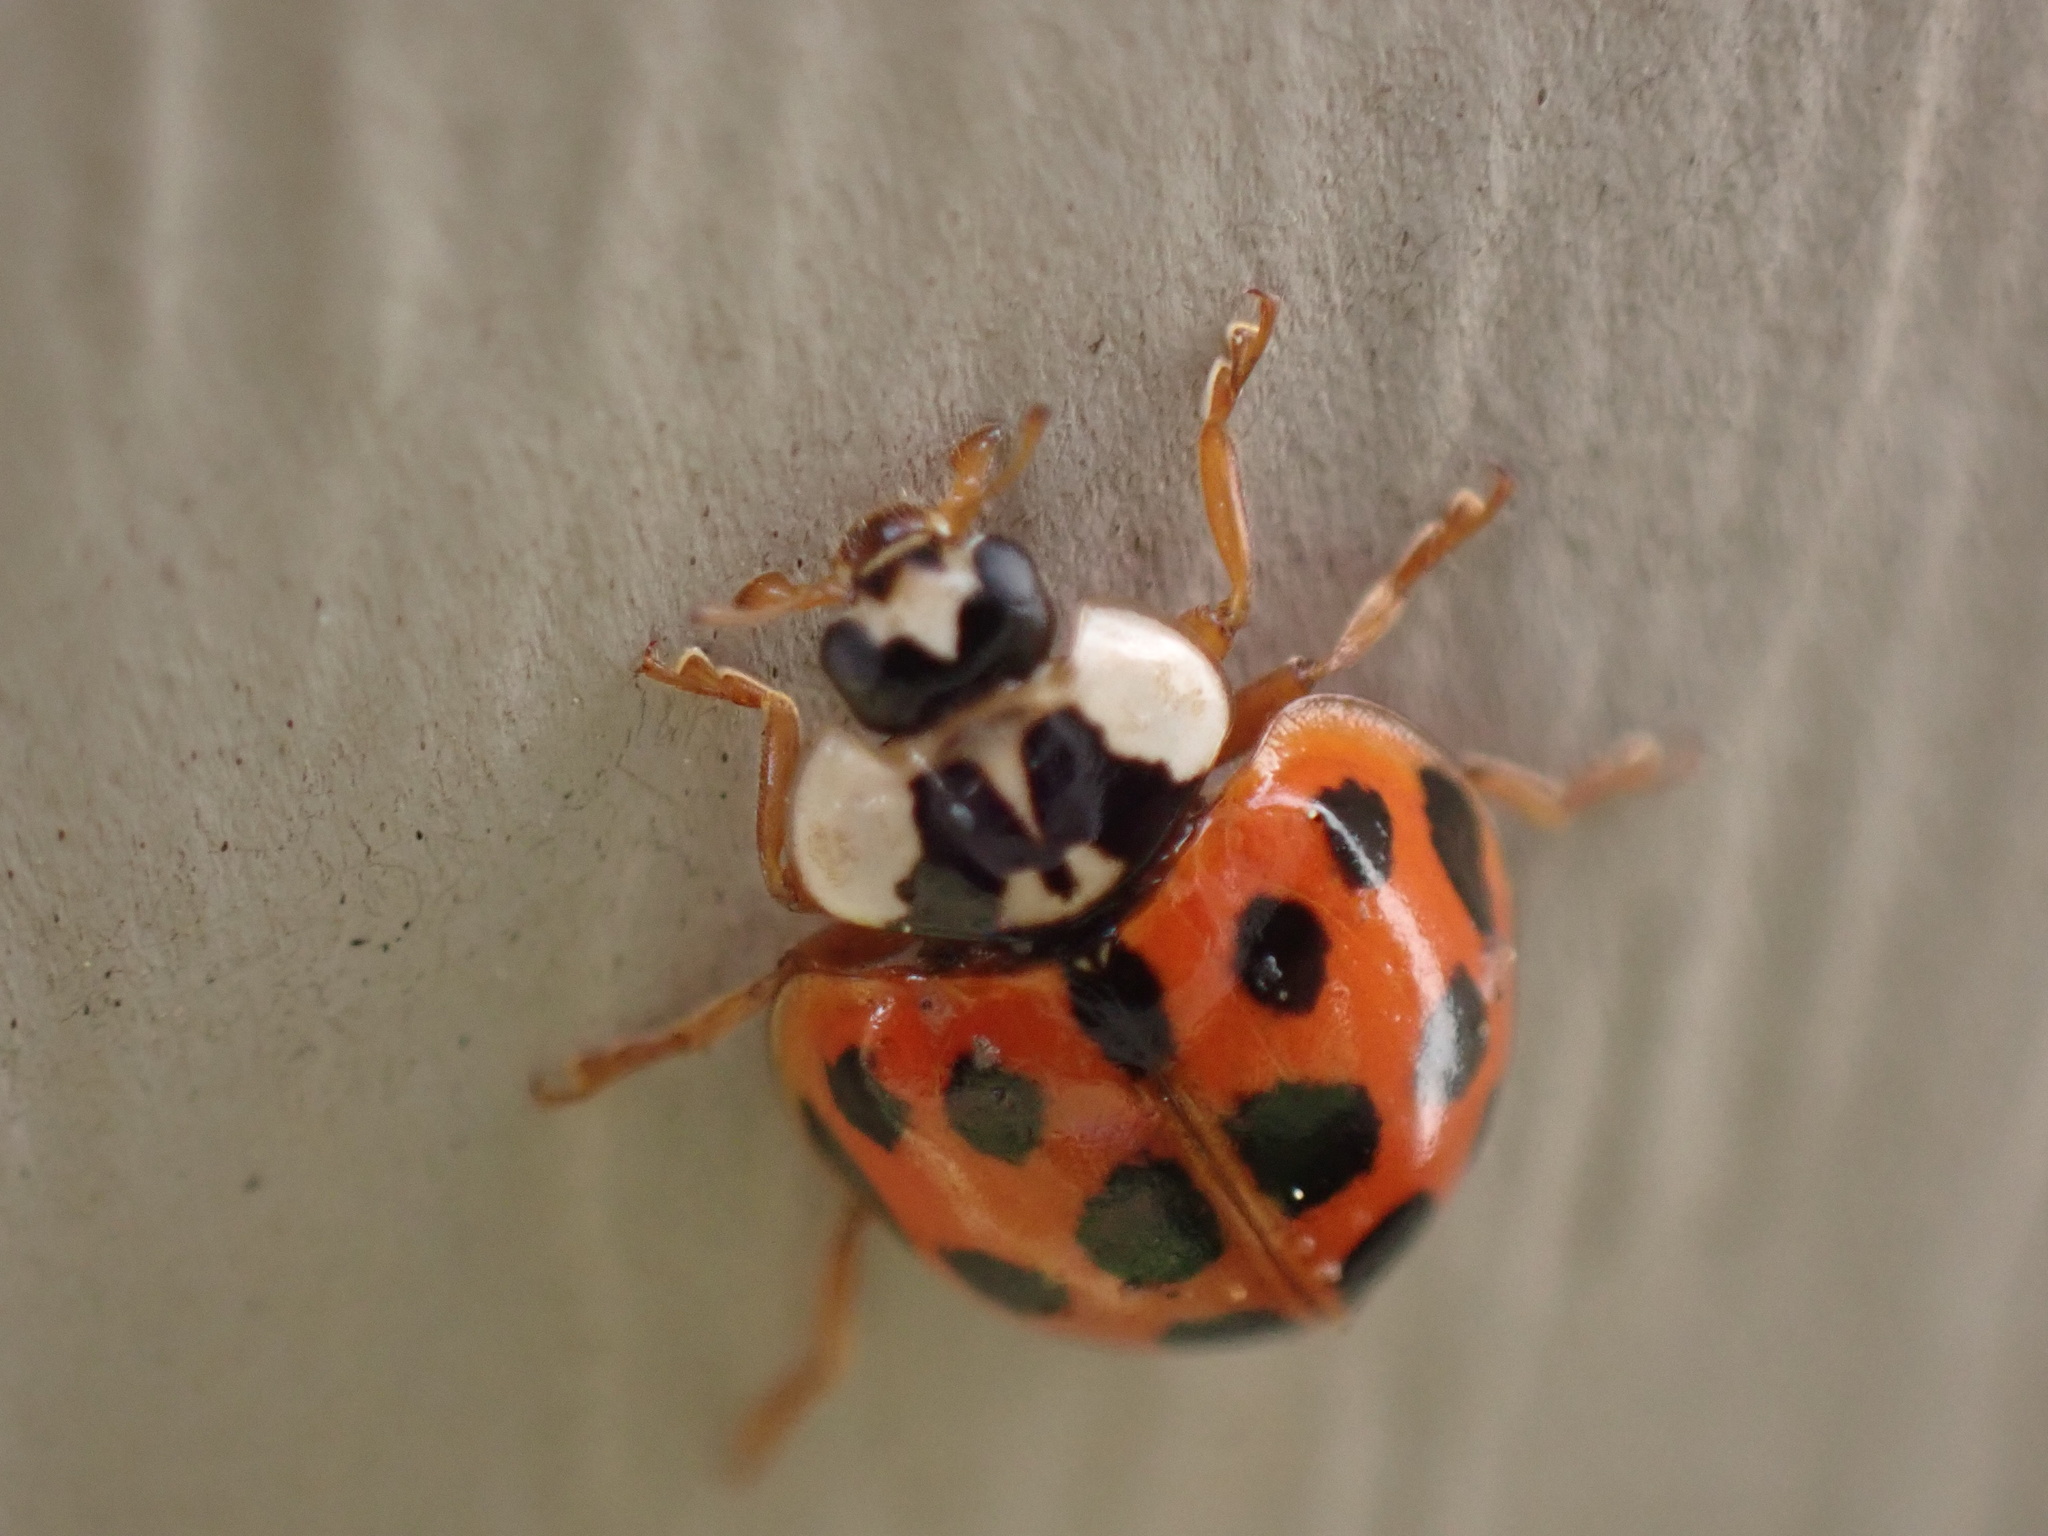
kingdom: Animalia
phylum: Arthropoda
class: Insecta
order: Coleoptera
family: Coccinellidae
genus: Harmonia
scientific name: Harmonia axyridis
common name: Harlequin ladybird
